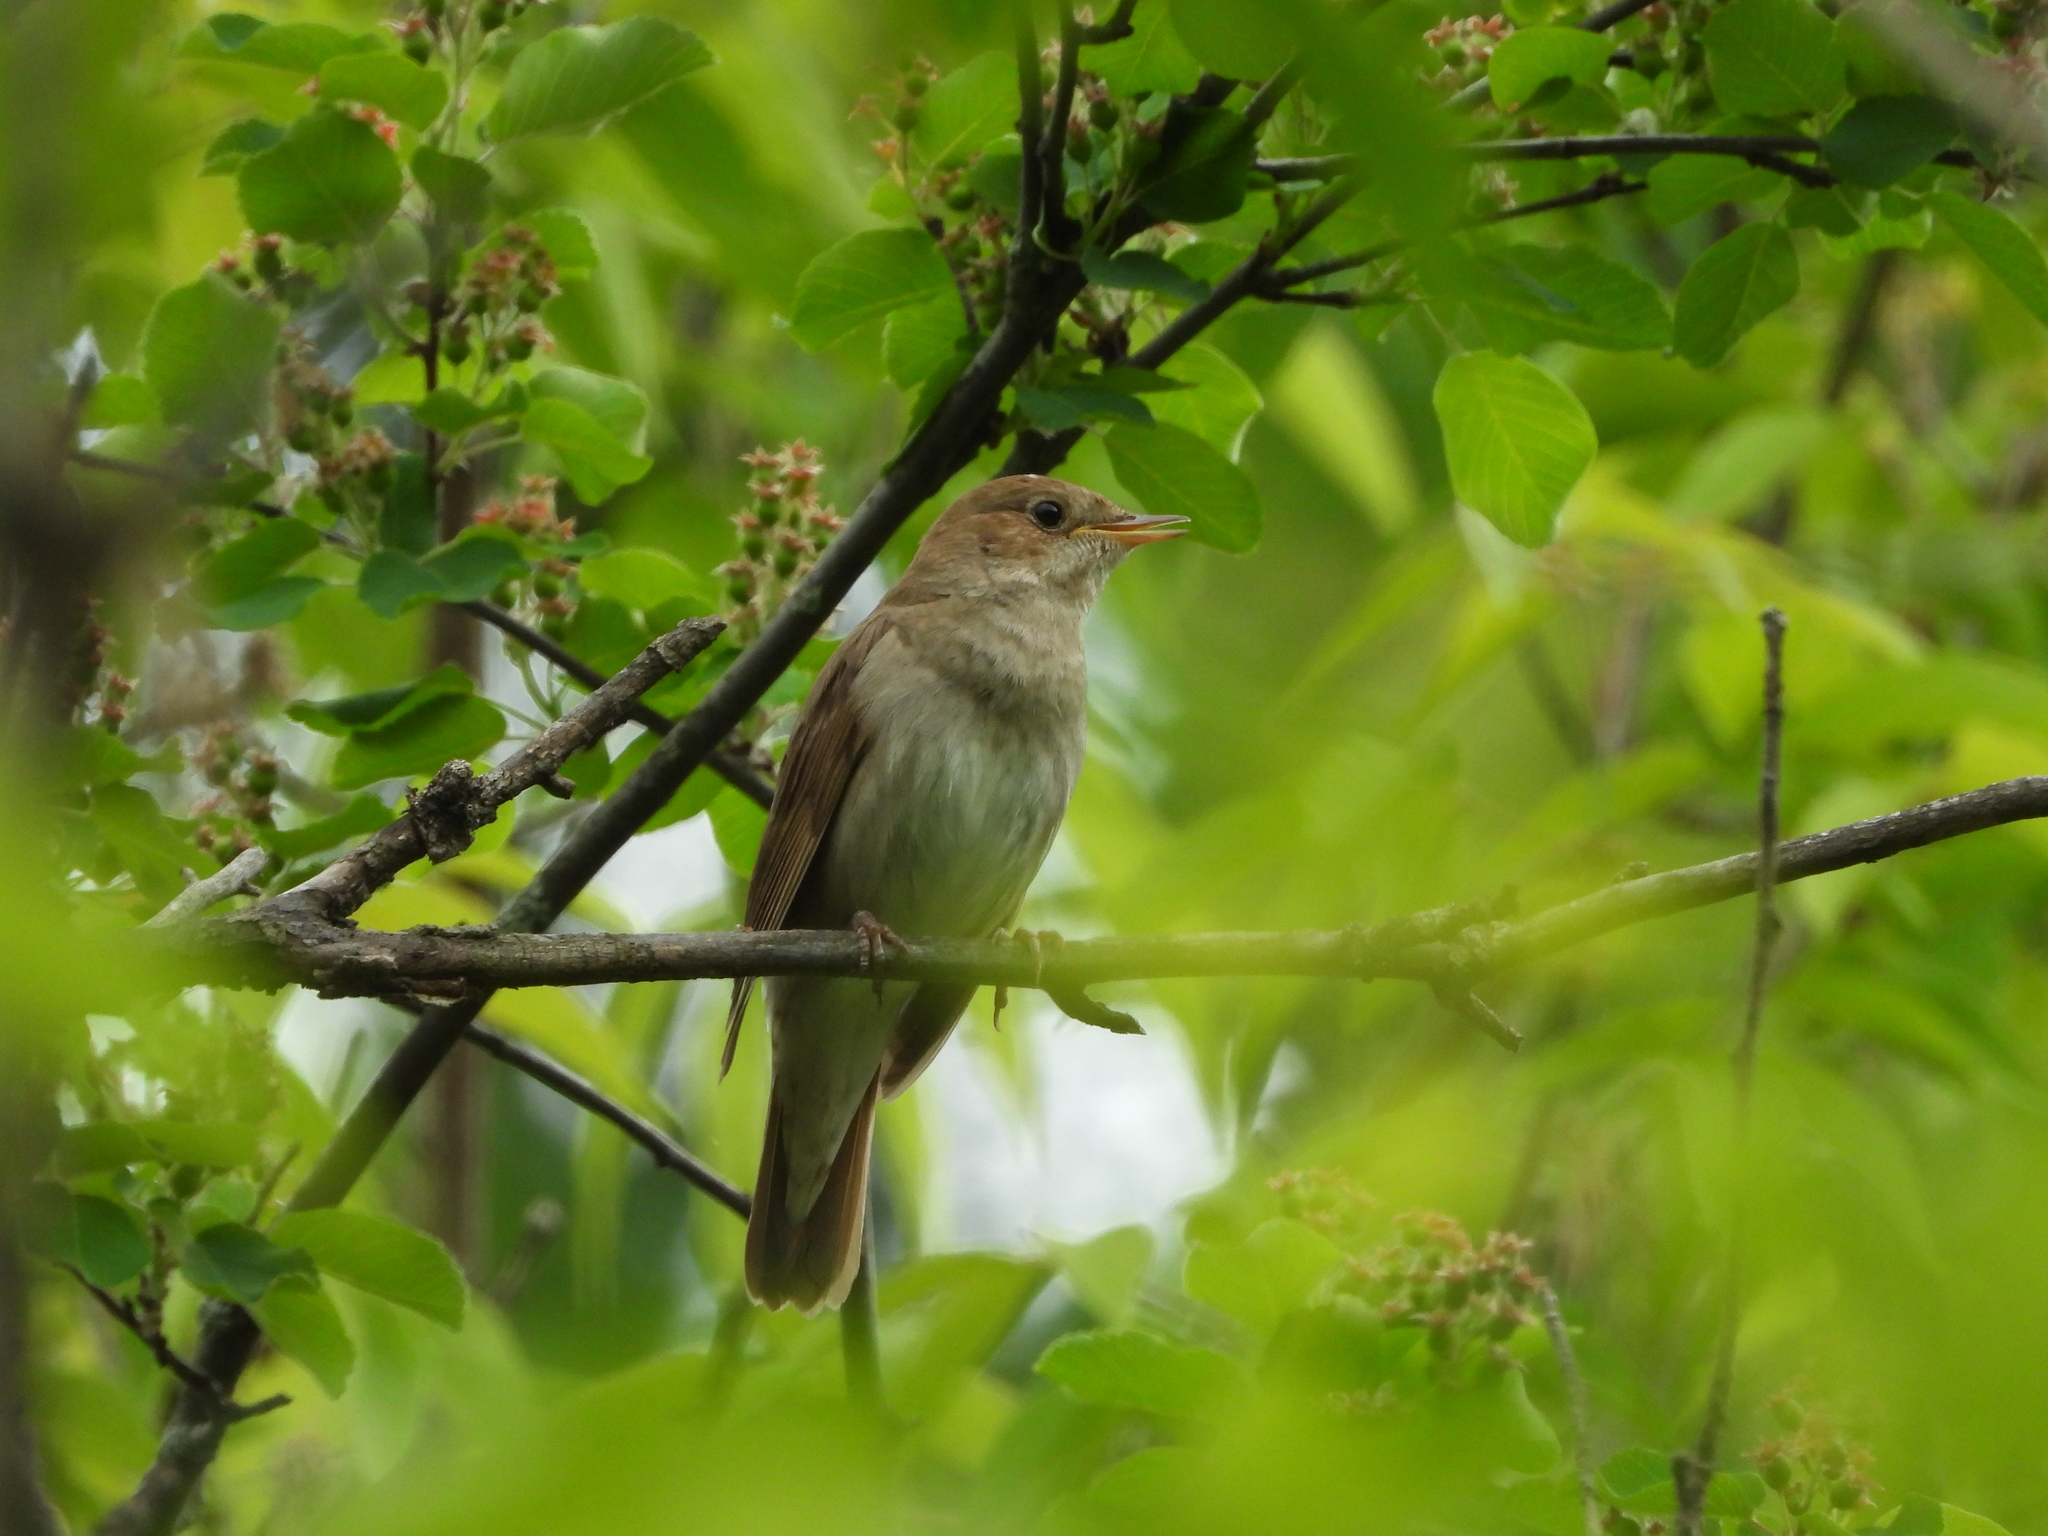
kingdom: Animalia
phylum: Chordata
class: Aves
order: Passeriformes
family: Muscicapidae
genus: Luscinia
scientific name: Luscinia luscinia
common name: Thrush nightingale
